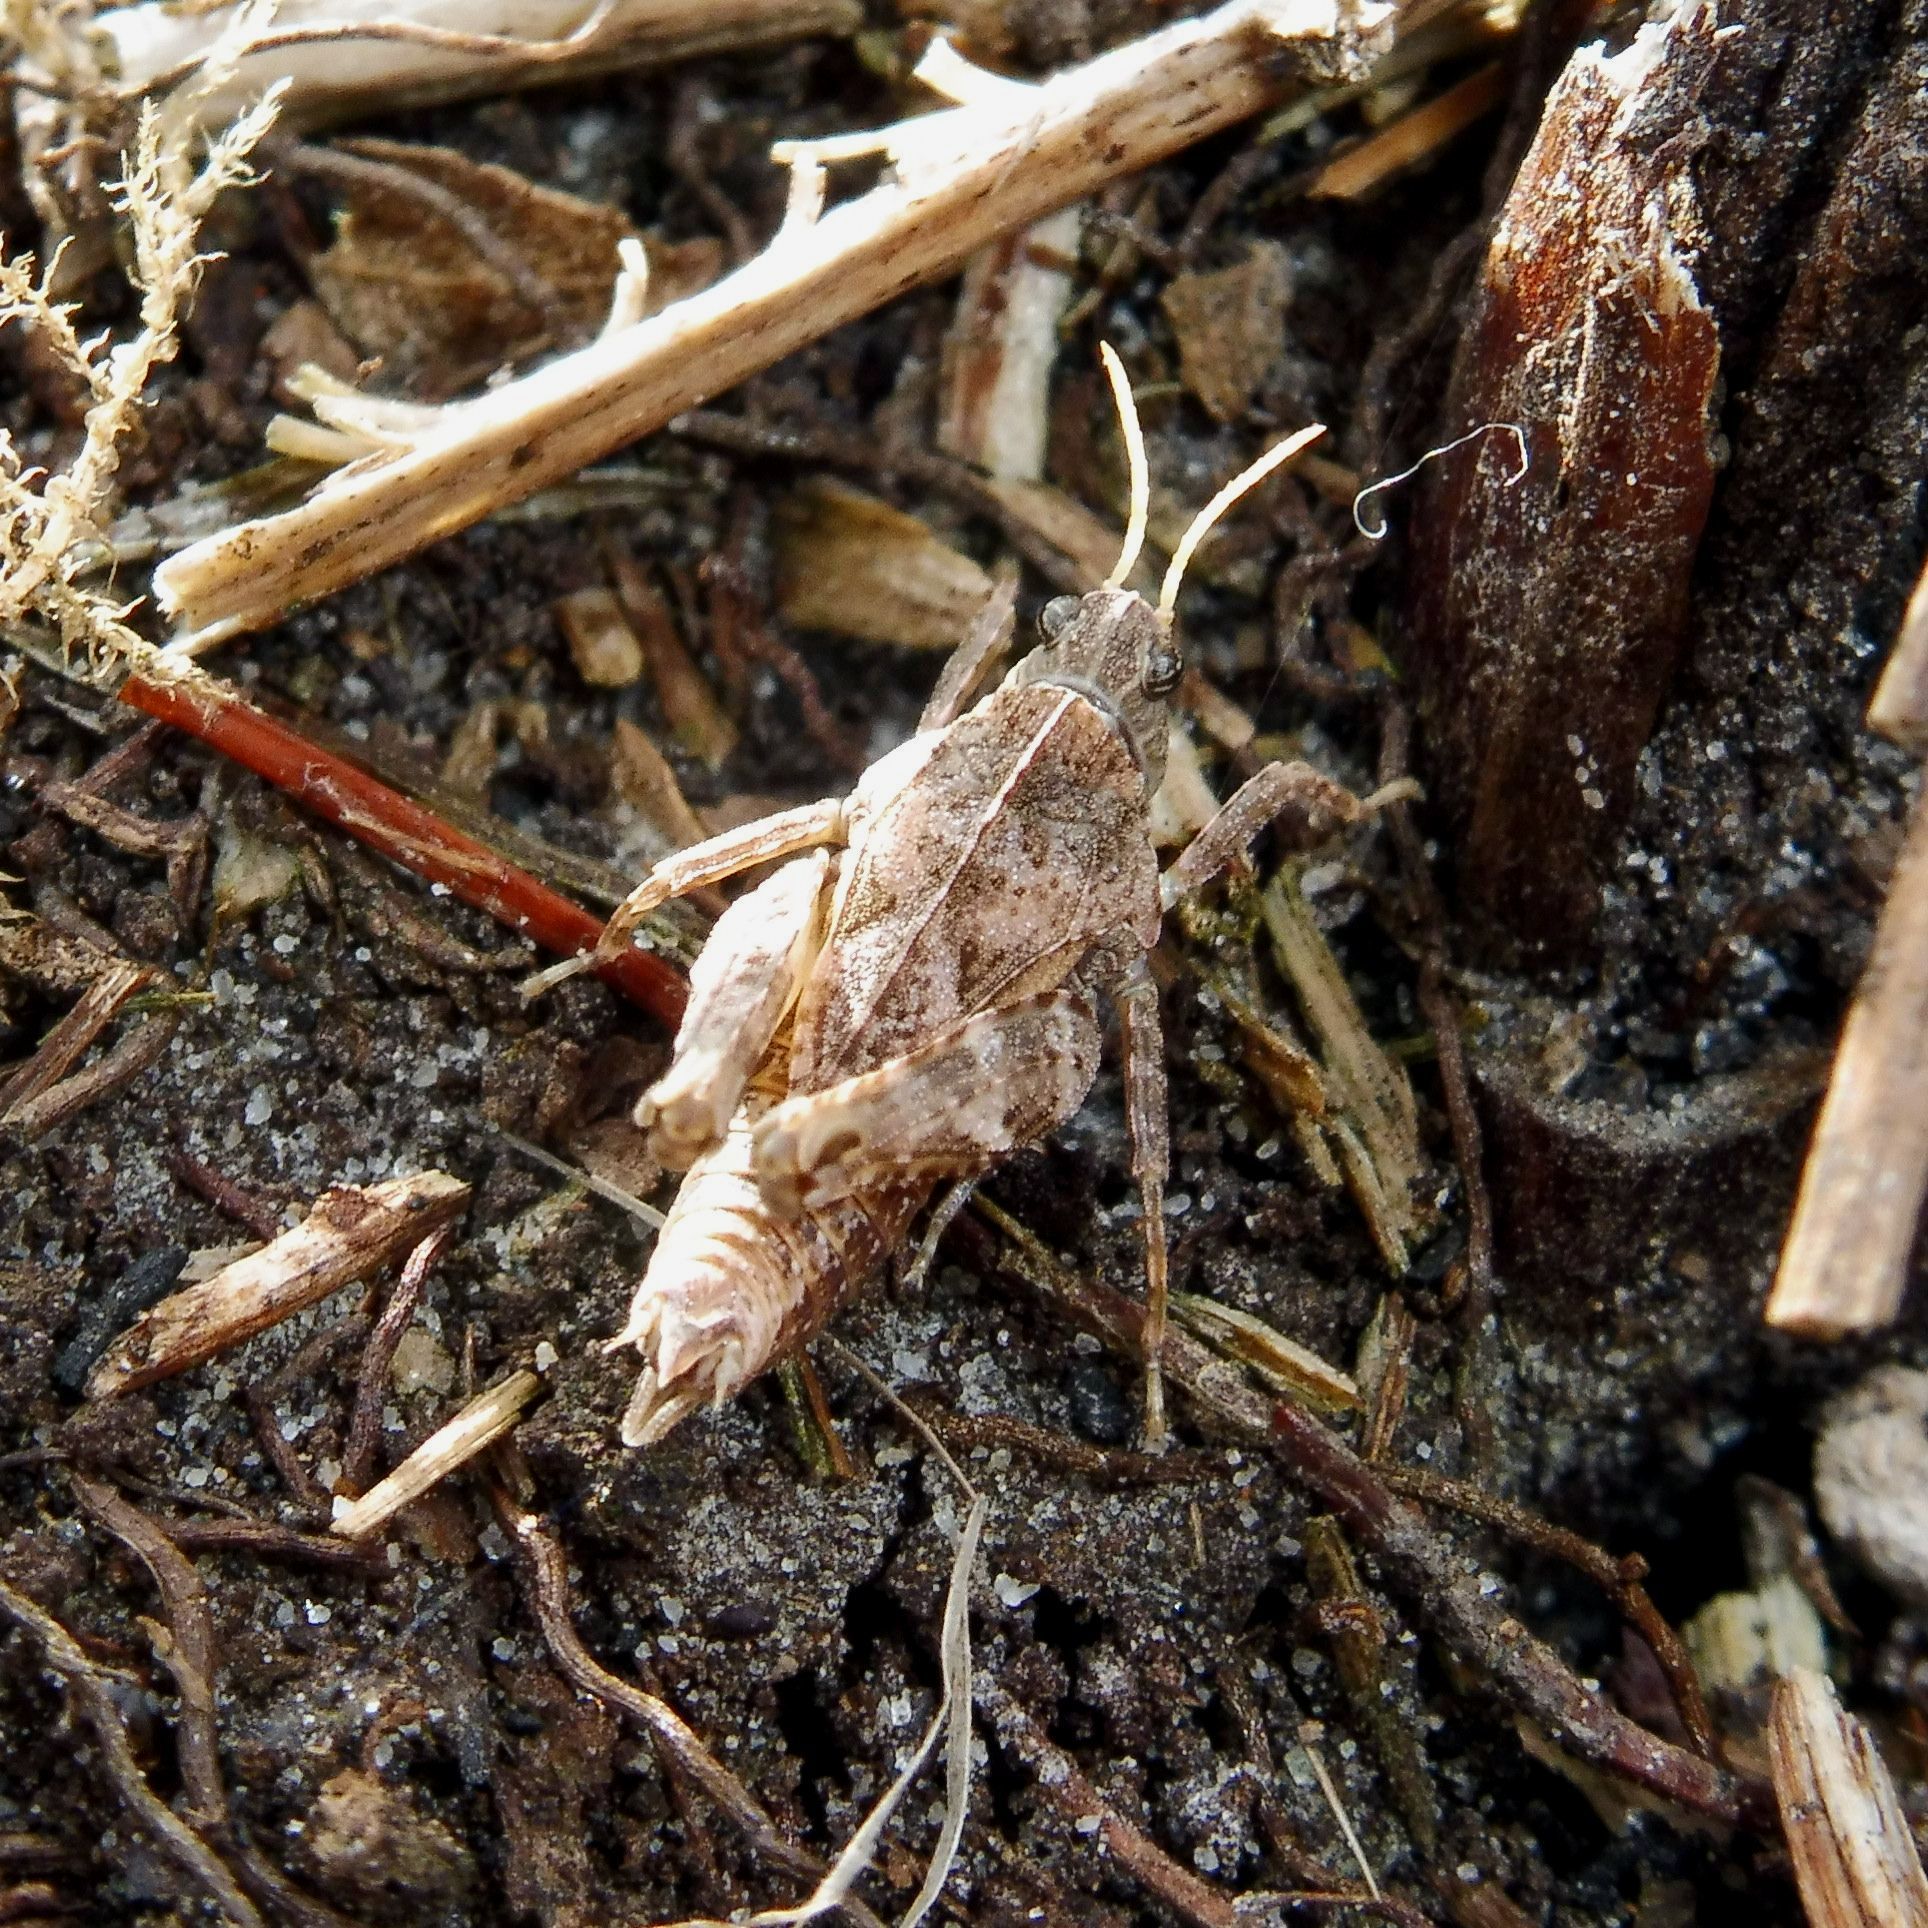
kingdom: Animalia
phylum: Arthropoda
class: Insecta
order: Orthoptera
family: Tetrigidae
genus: Tetrix
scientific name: Tetrix undulata
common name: Common groundhopper
